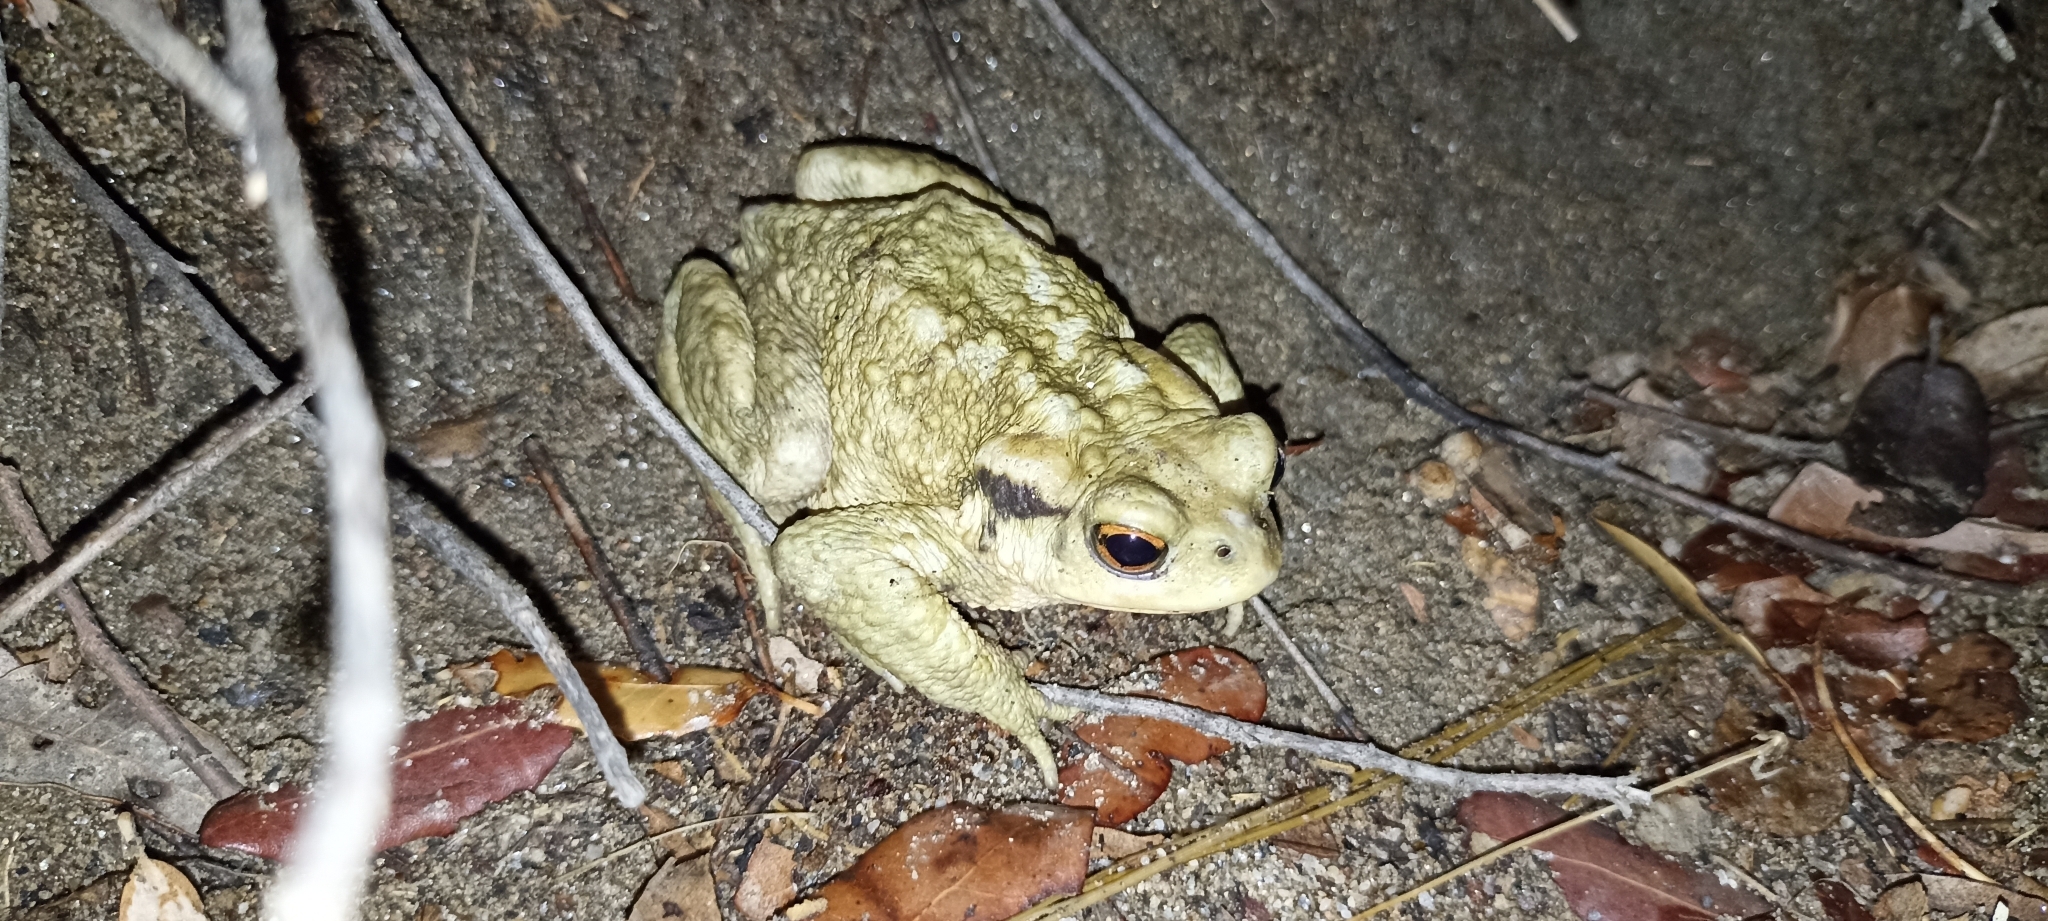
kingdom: Animalia
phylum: Chordata
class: Amphibia
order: Anura
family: Bufonidae
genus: Bufo
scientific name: Bufo spinosus
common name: Western common toad
